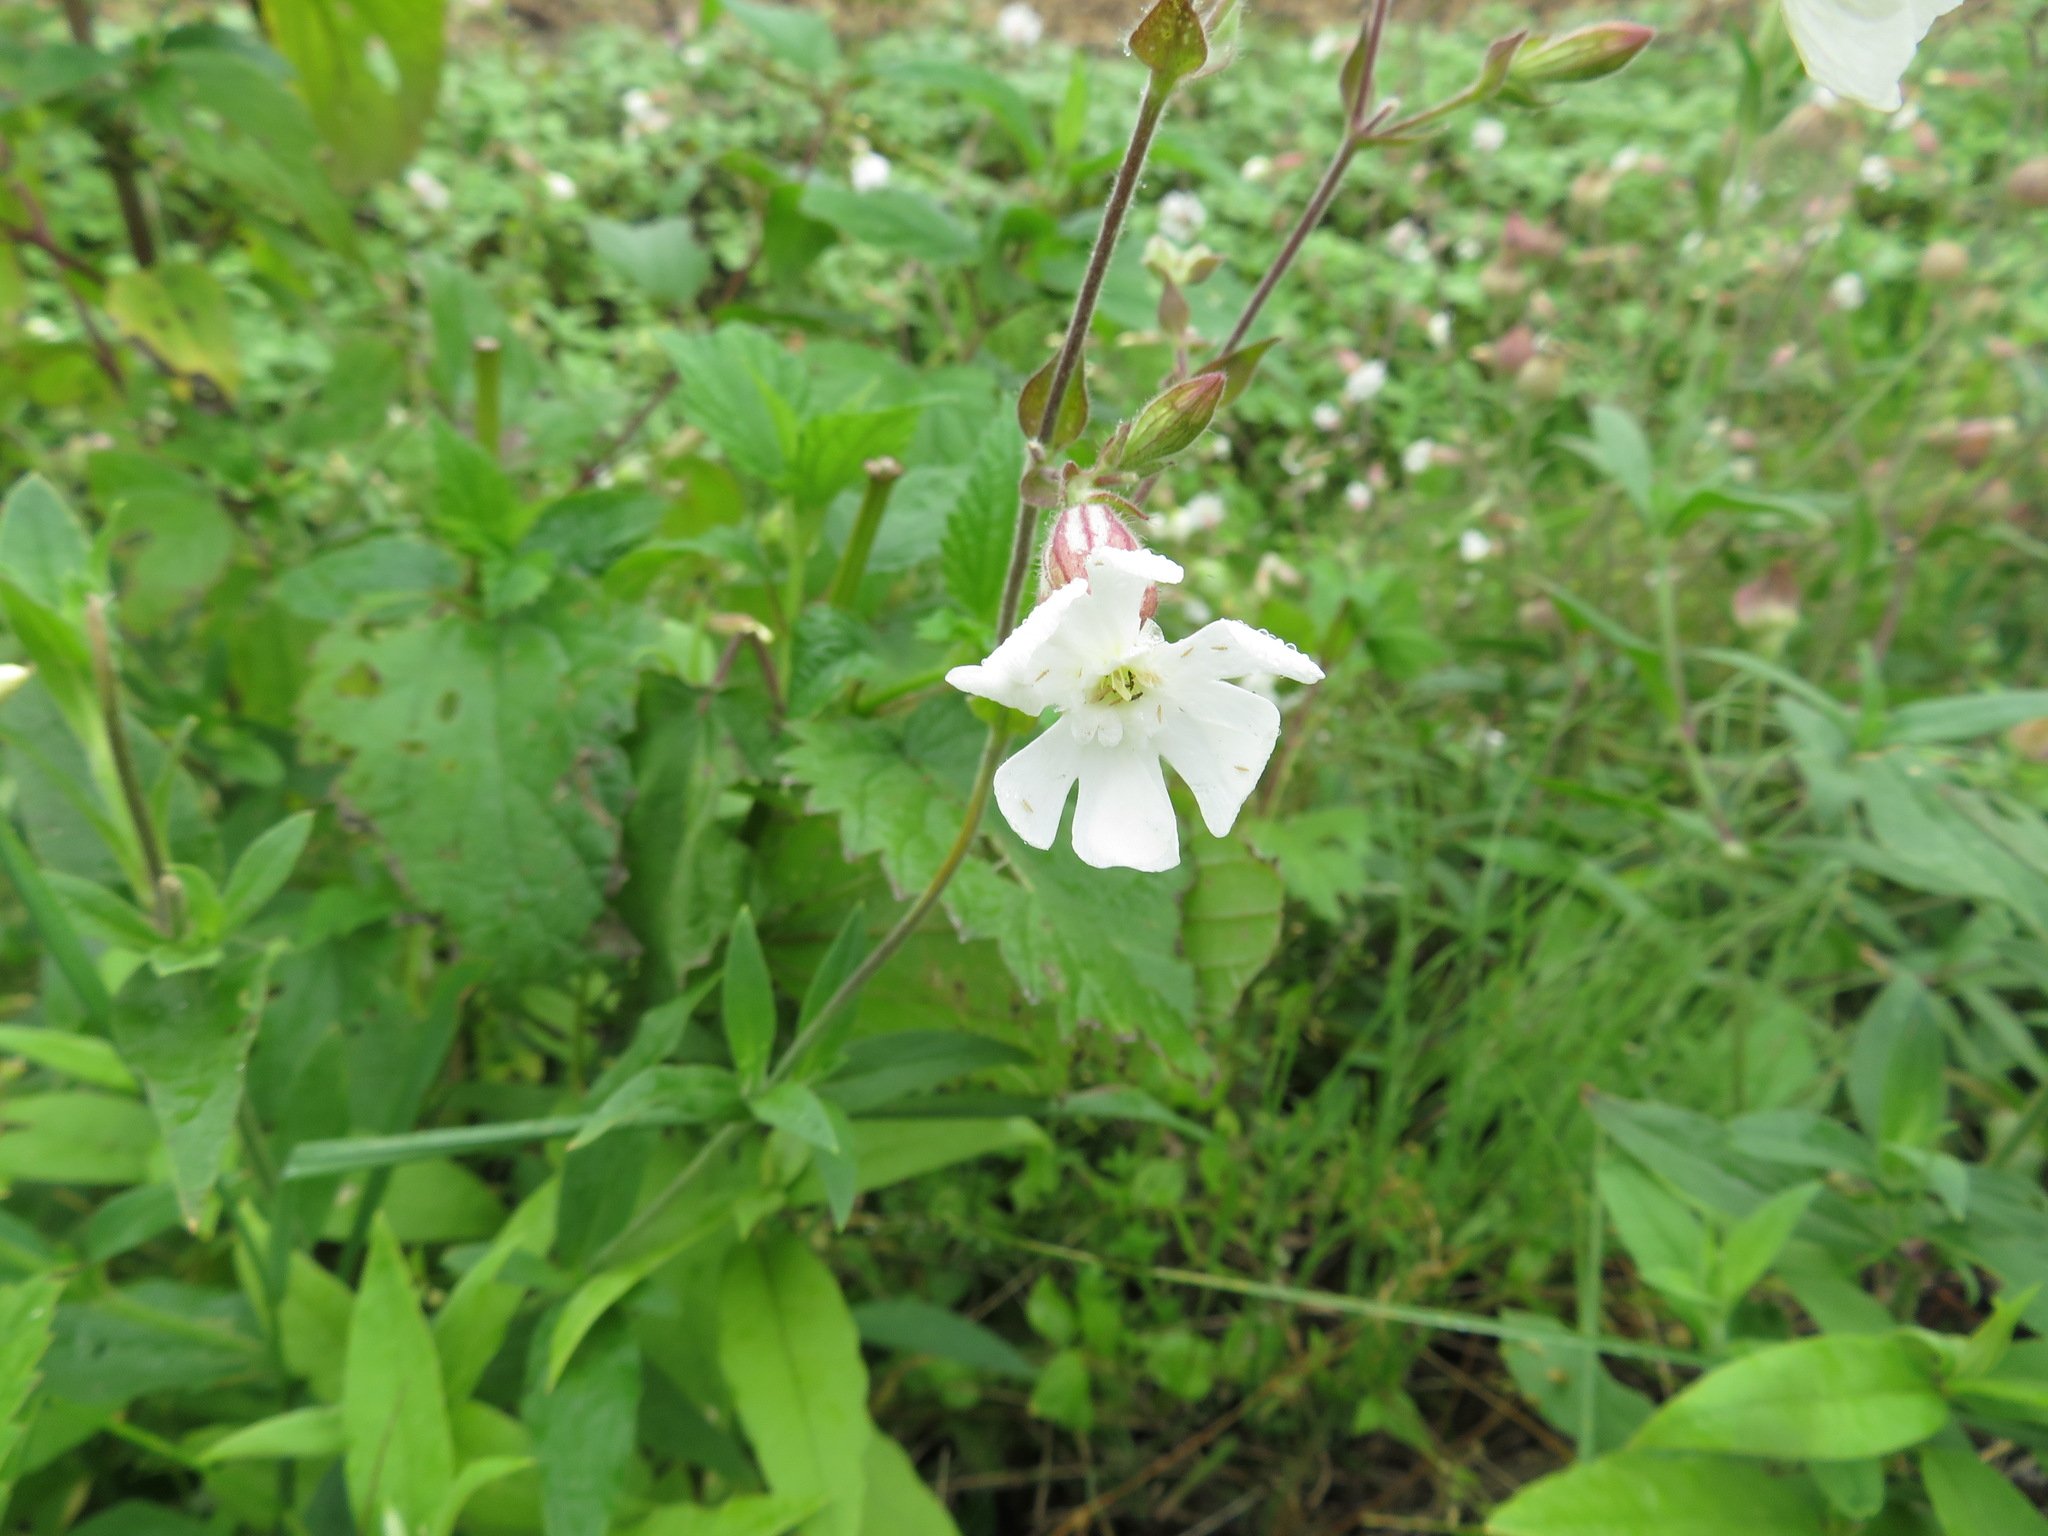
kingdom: Plantae
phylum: Tracheophyta
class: Magnoliopsida
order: Caryophyllales
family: Caryophyllaceae
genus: Silene
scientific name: Silene latifolia
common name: White campion
